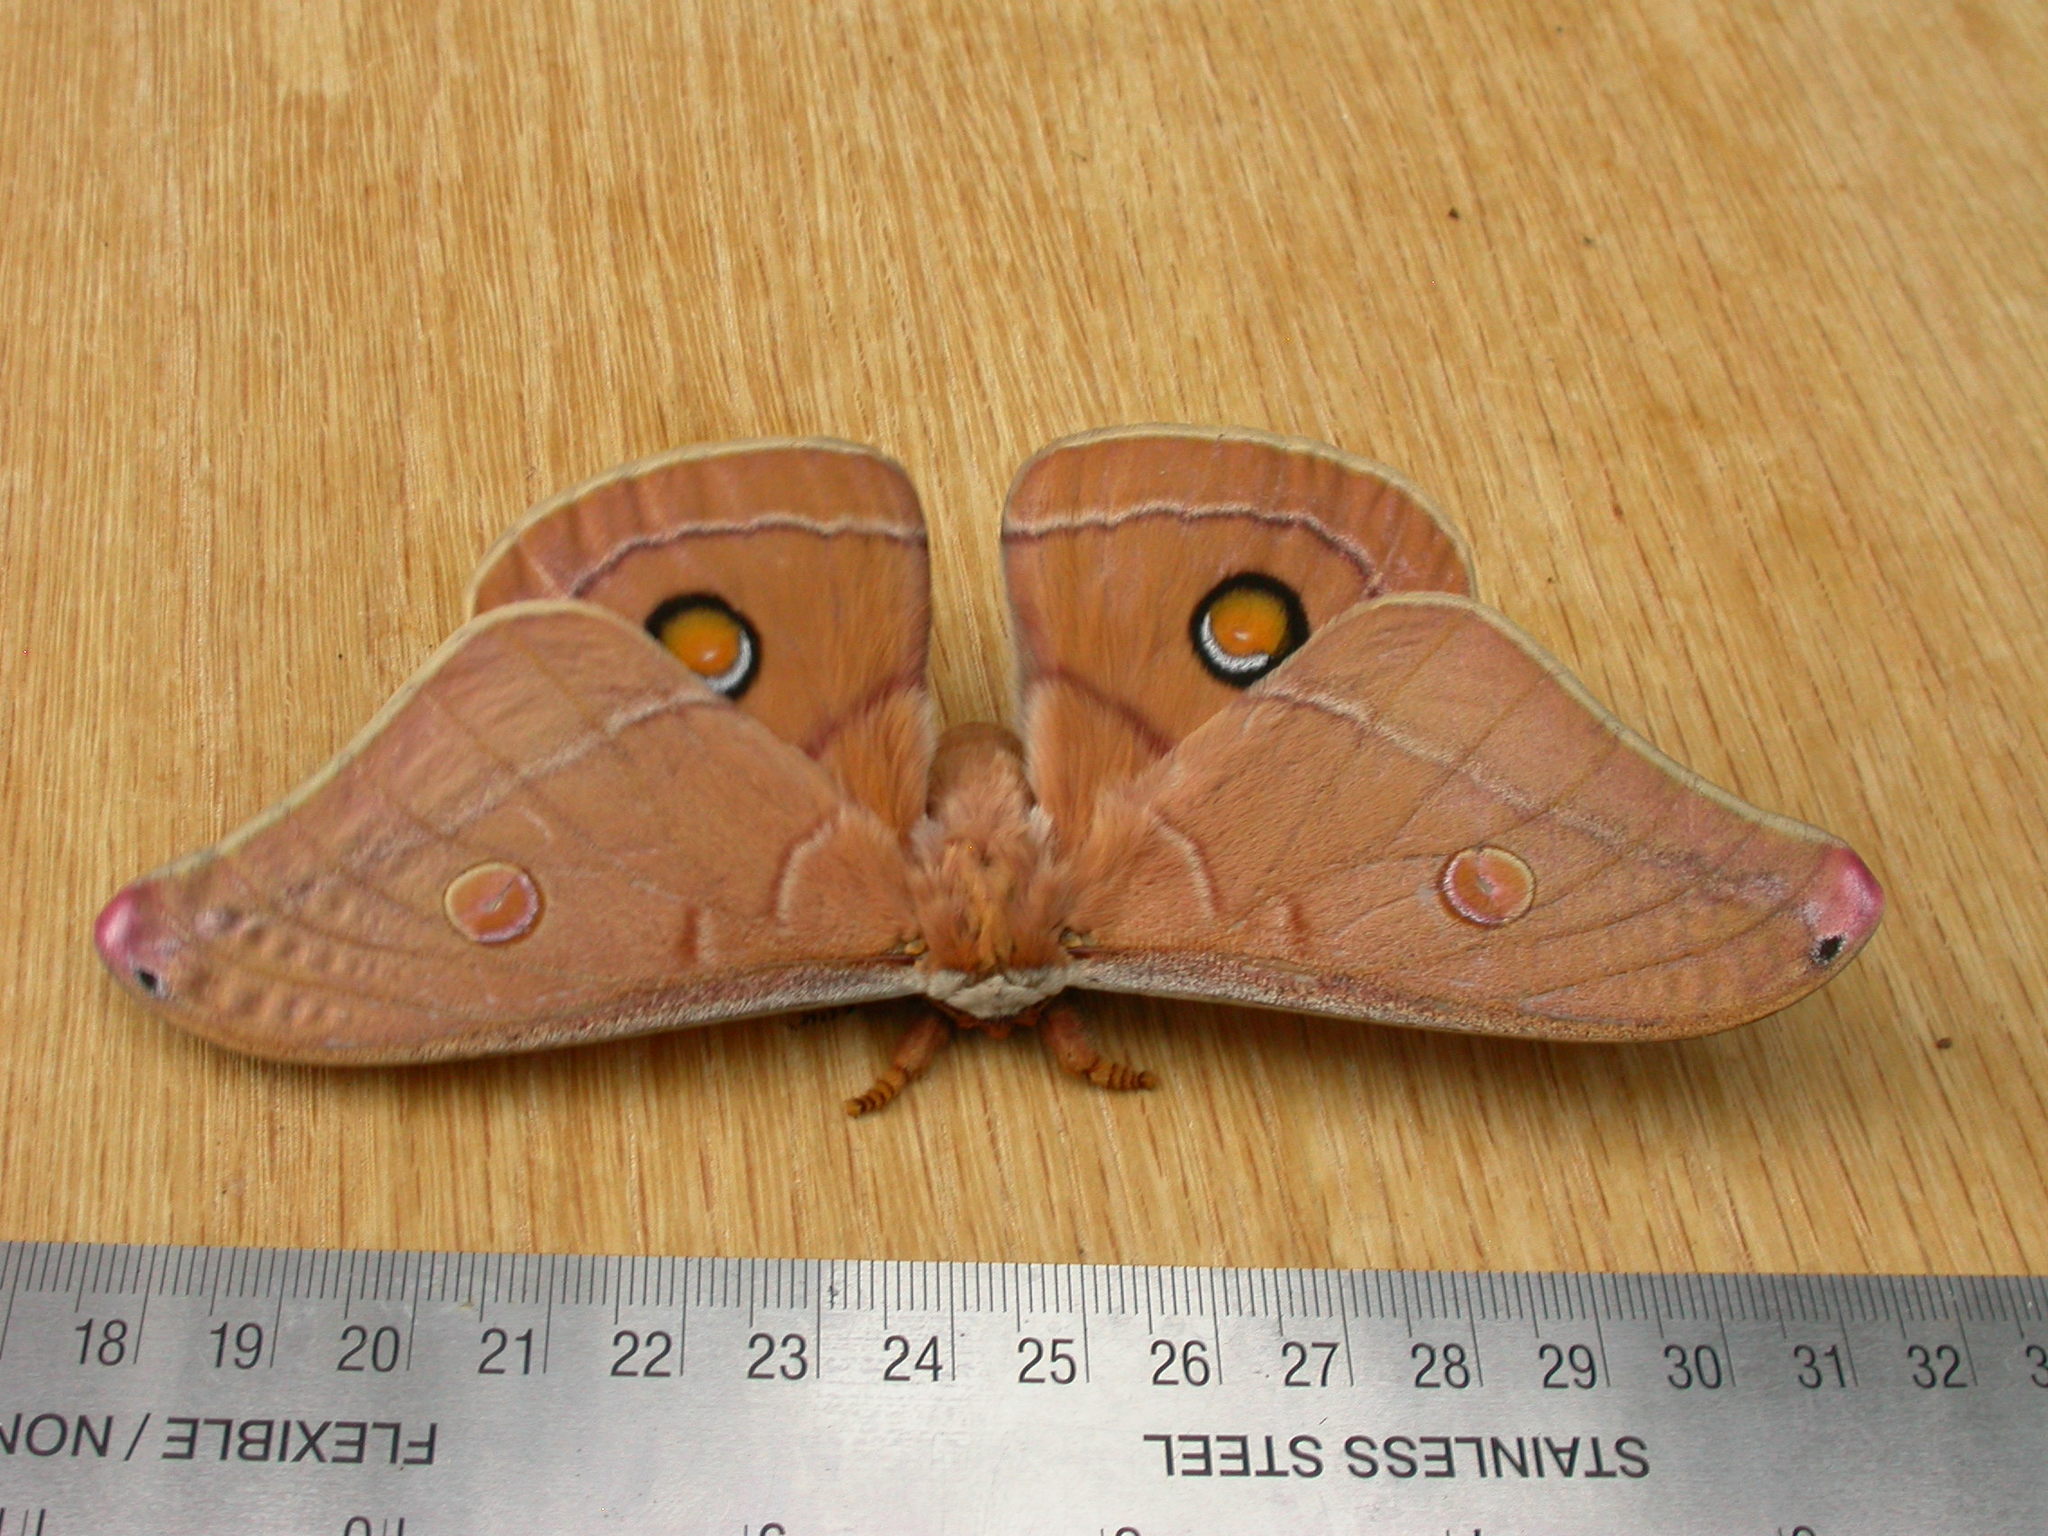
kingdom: Animalia
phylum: Arthropoda
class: Insecta
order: Lepidoptera
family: Saturniidae
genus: Opodiphthera
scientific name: Opodiphthera
